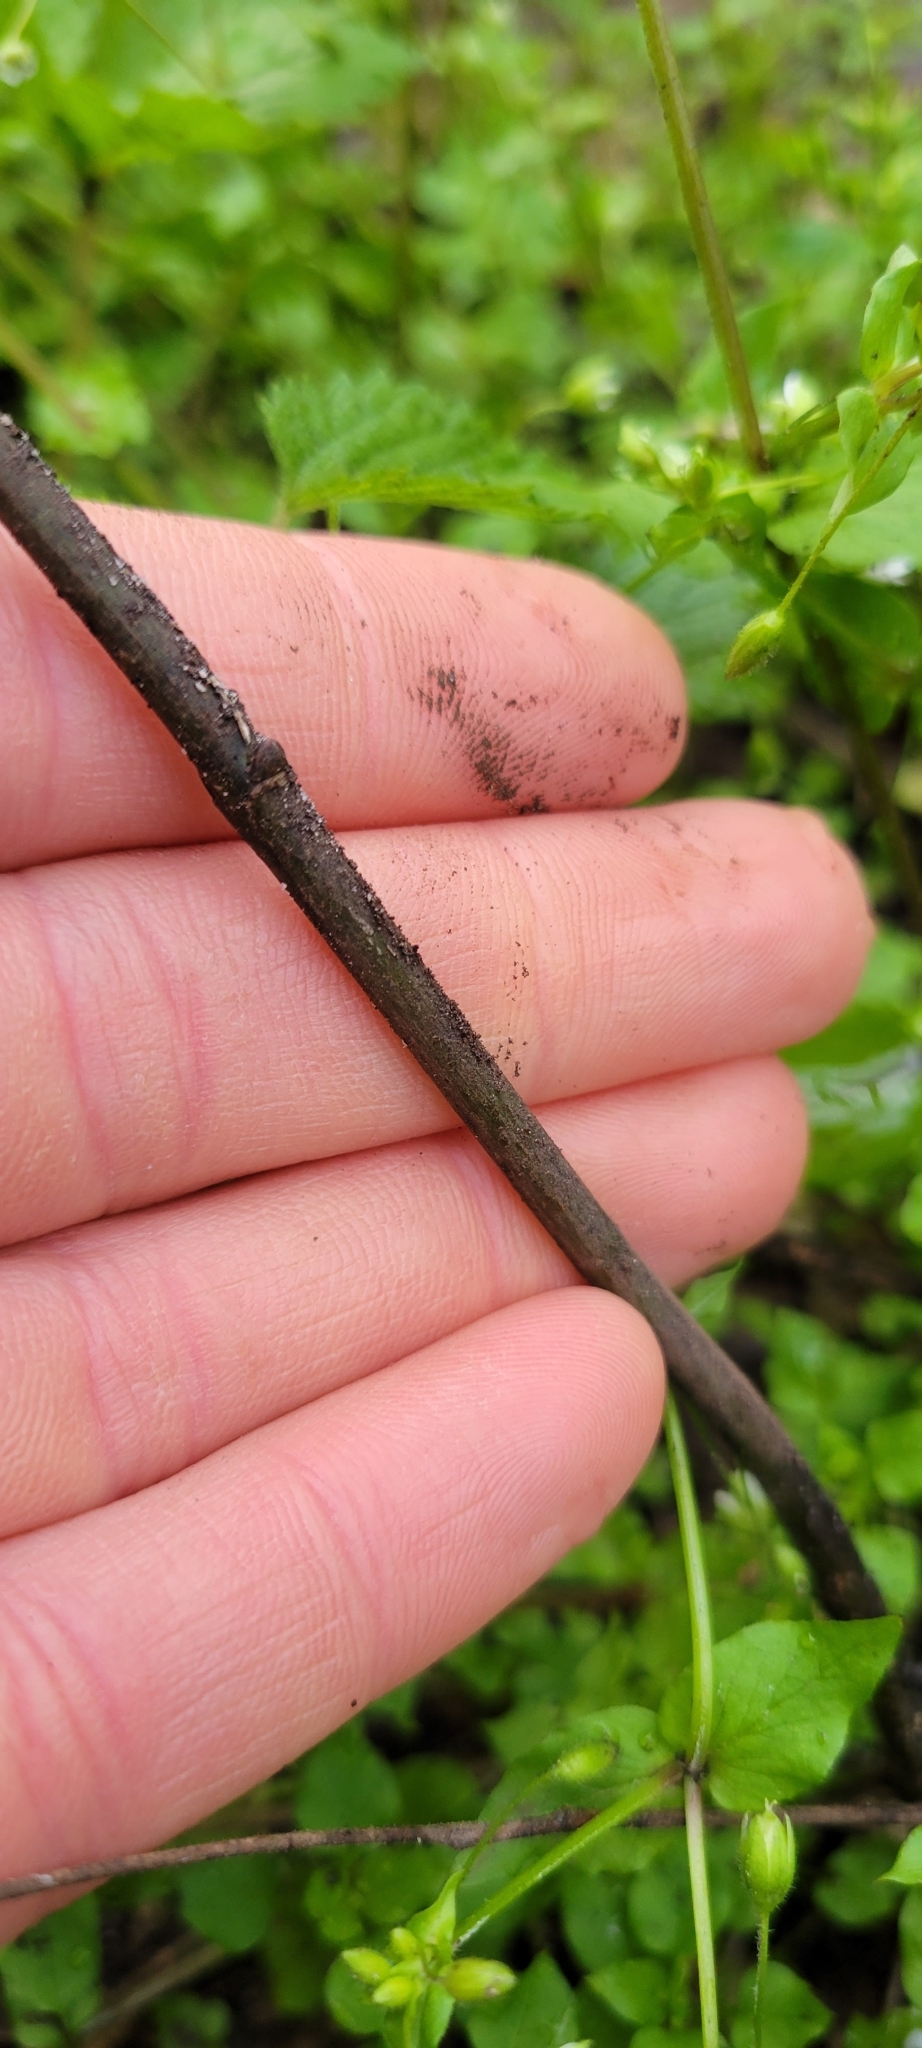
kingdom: Plantae
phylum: Tracheophyta
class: Magnoliopsida
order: Crossosomatales
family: Staphyleaceae
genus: Staphylea
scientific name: Staphylea trifolia
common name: American bladdernut
